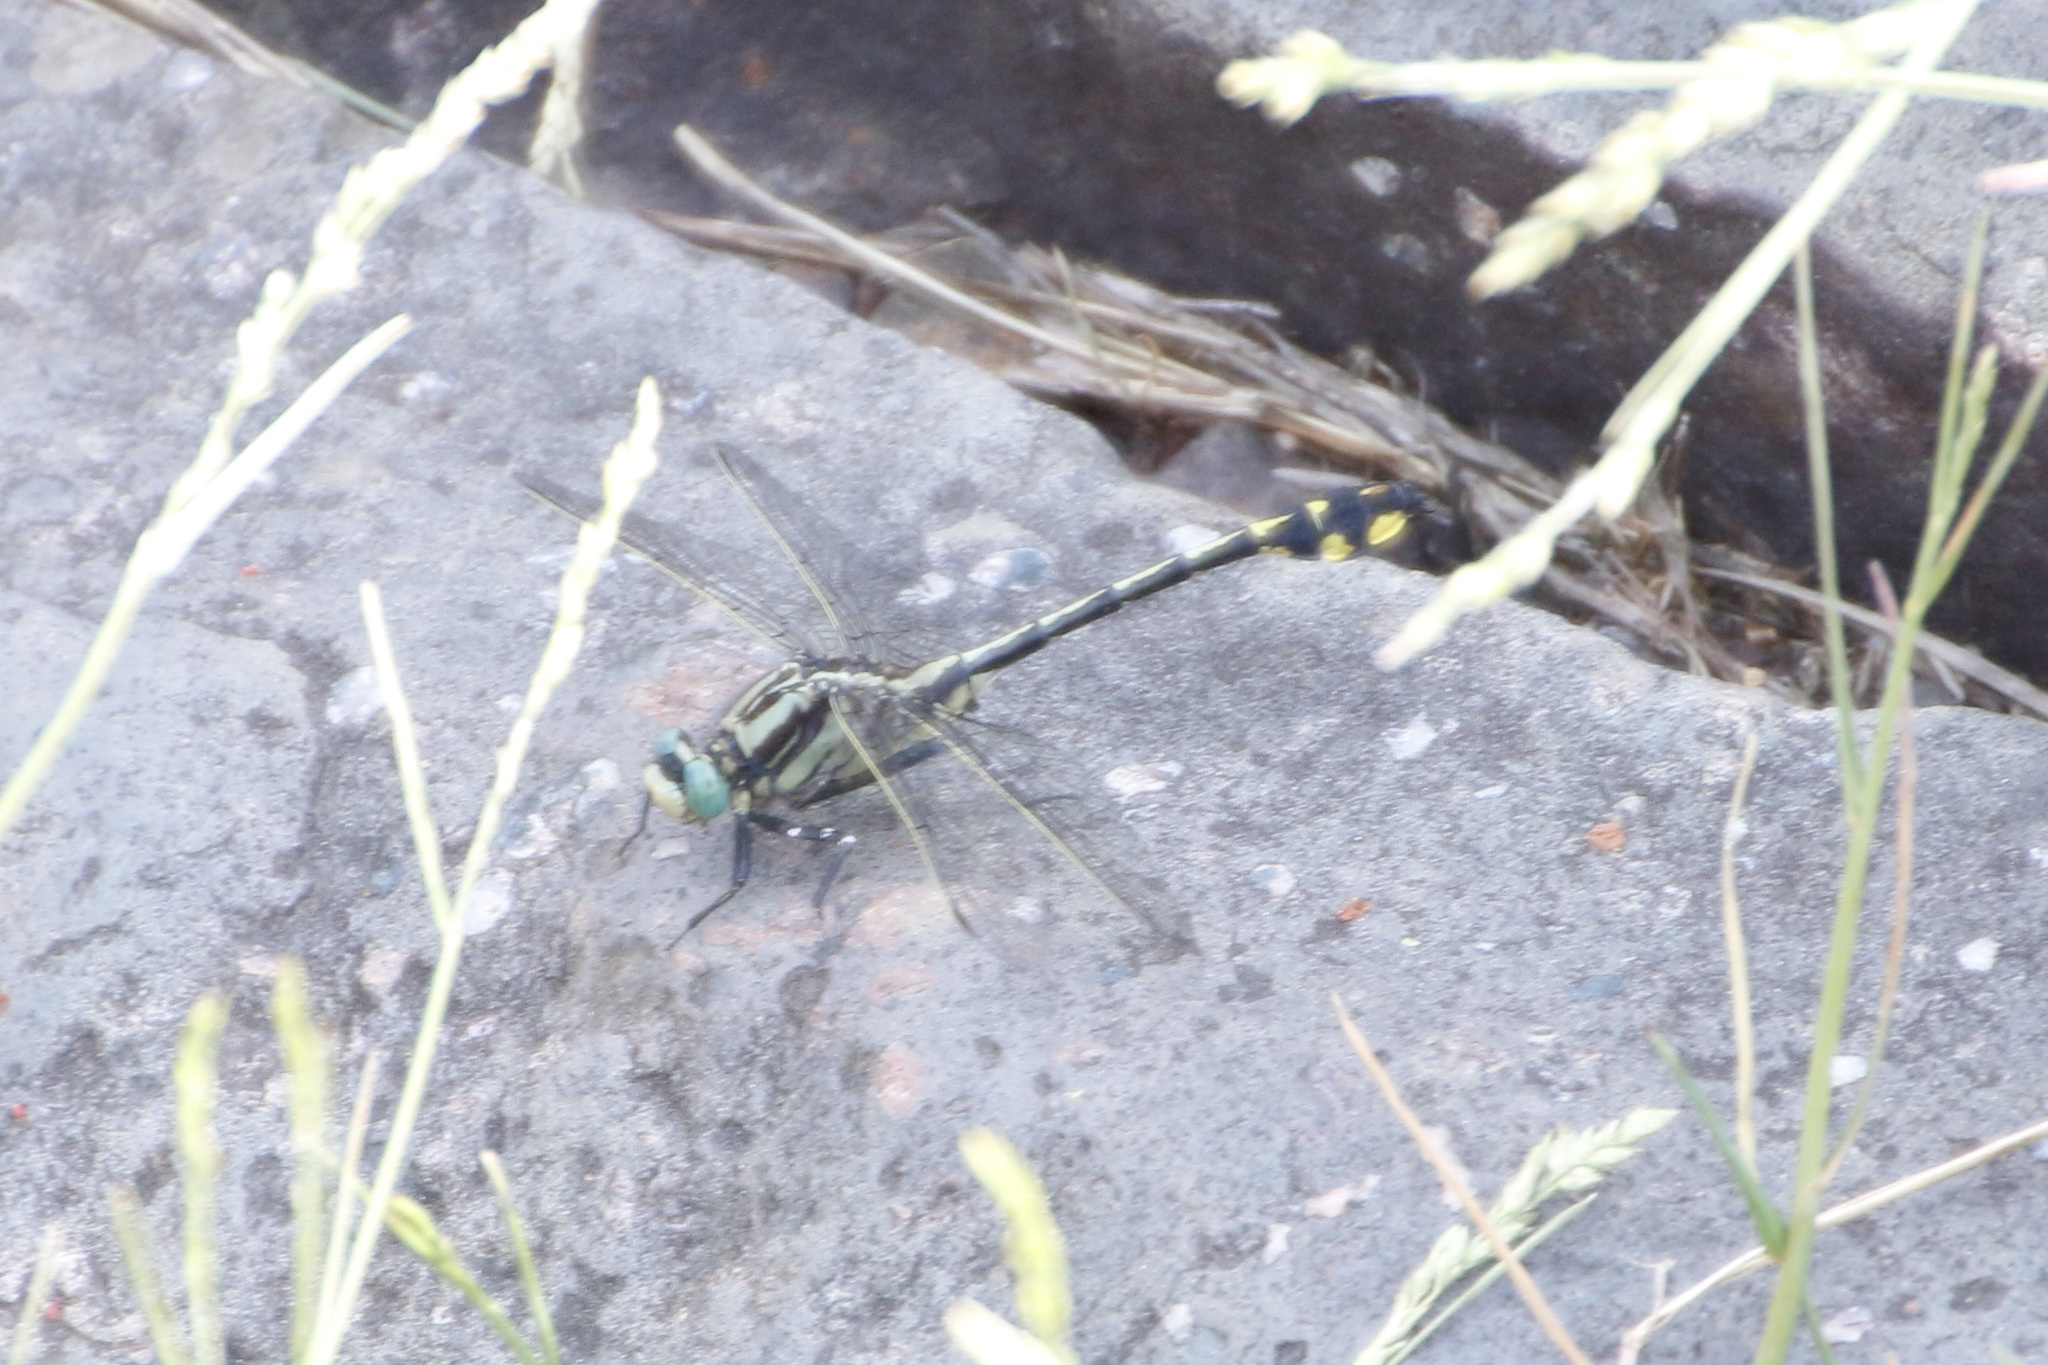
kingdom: Animalia
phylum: Arthropoda
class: Insecta
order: Odonata
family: Gomphidae
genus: Gomphurus
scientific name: Gomphurus fraternus
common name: Midland clubtail
